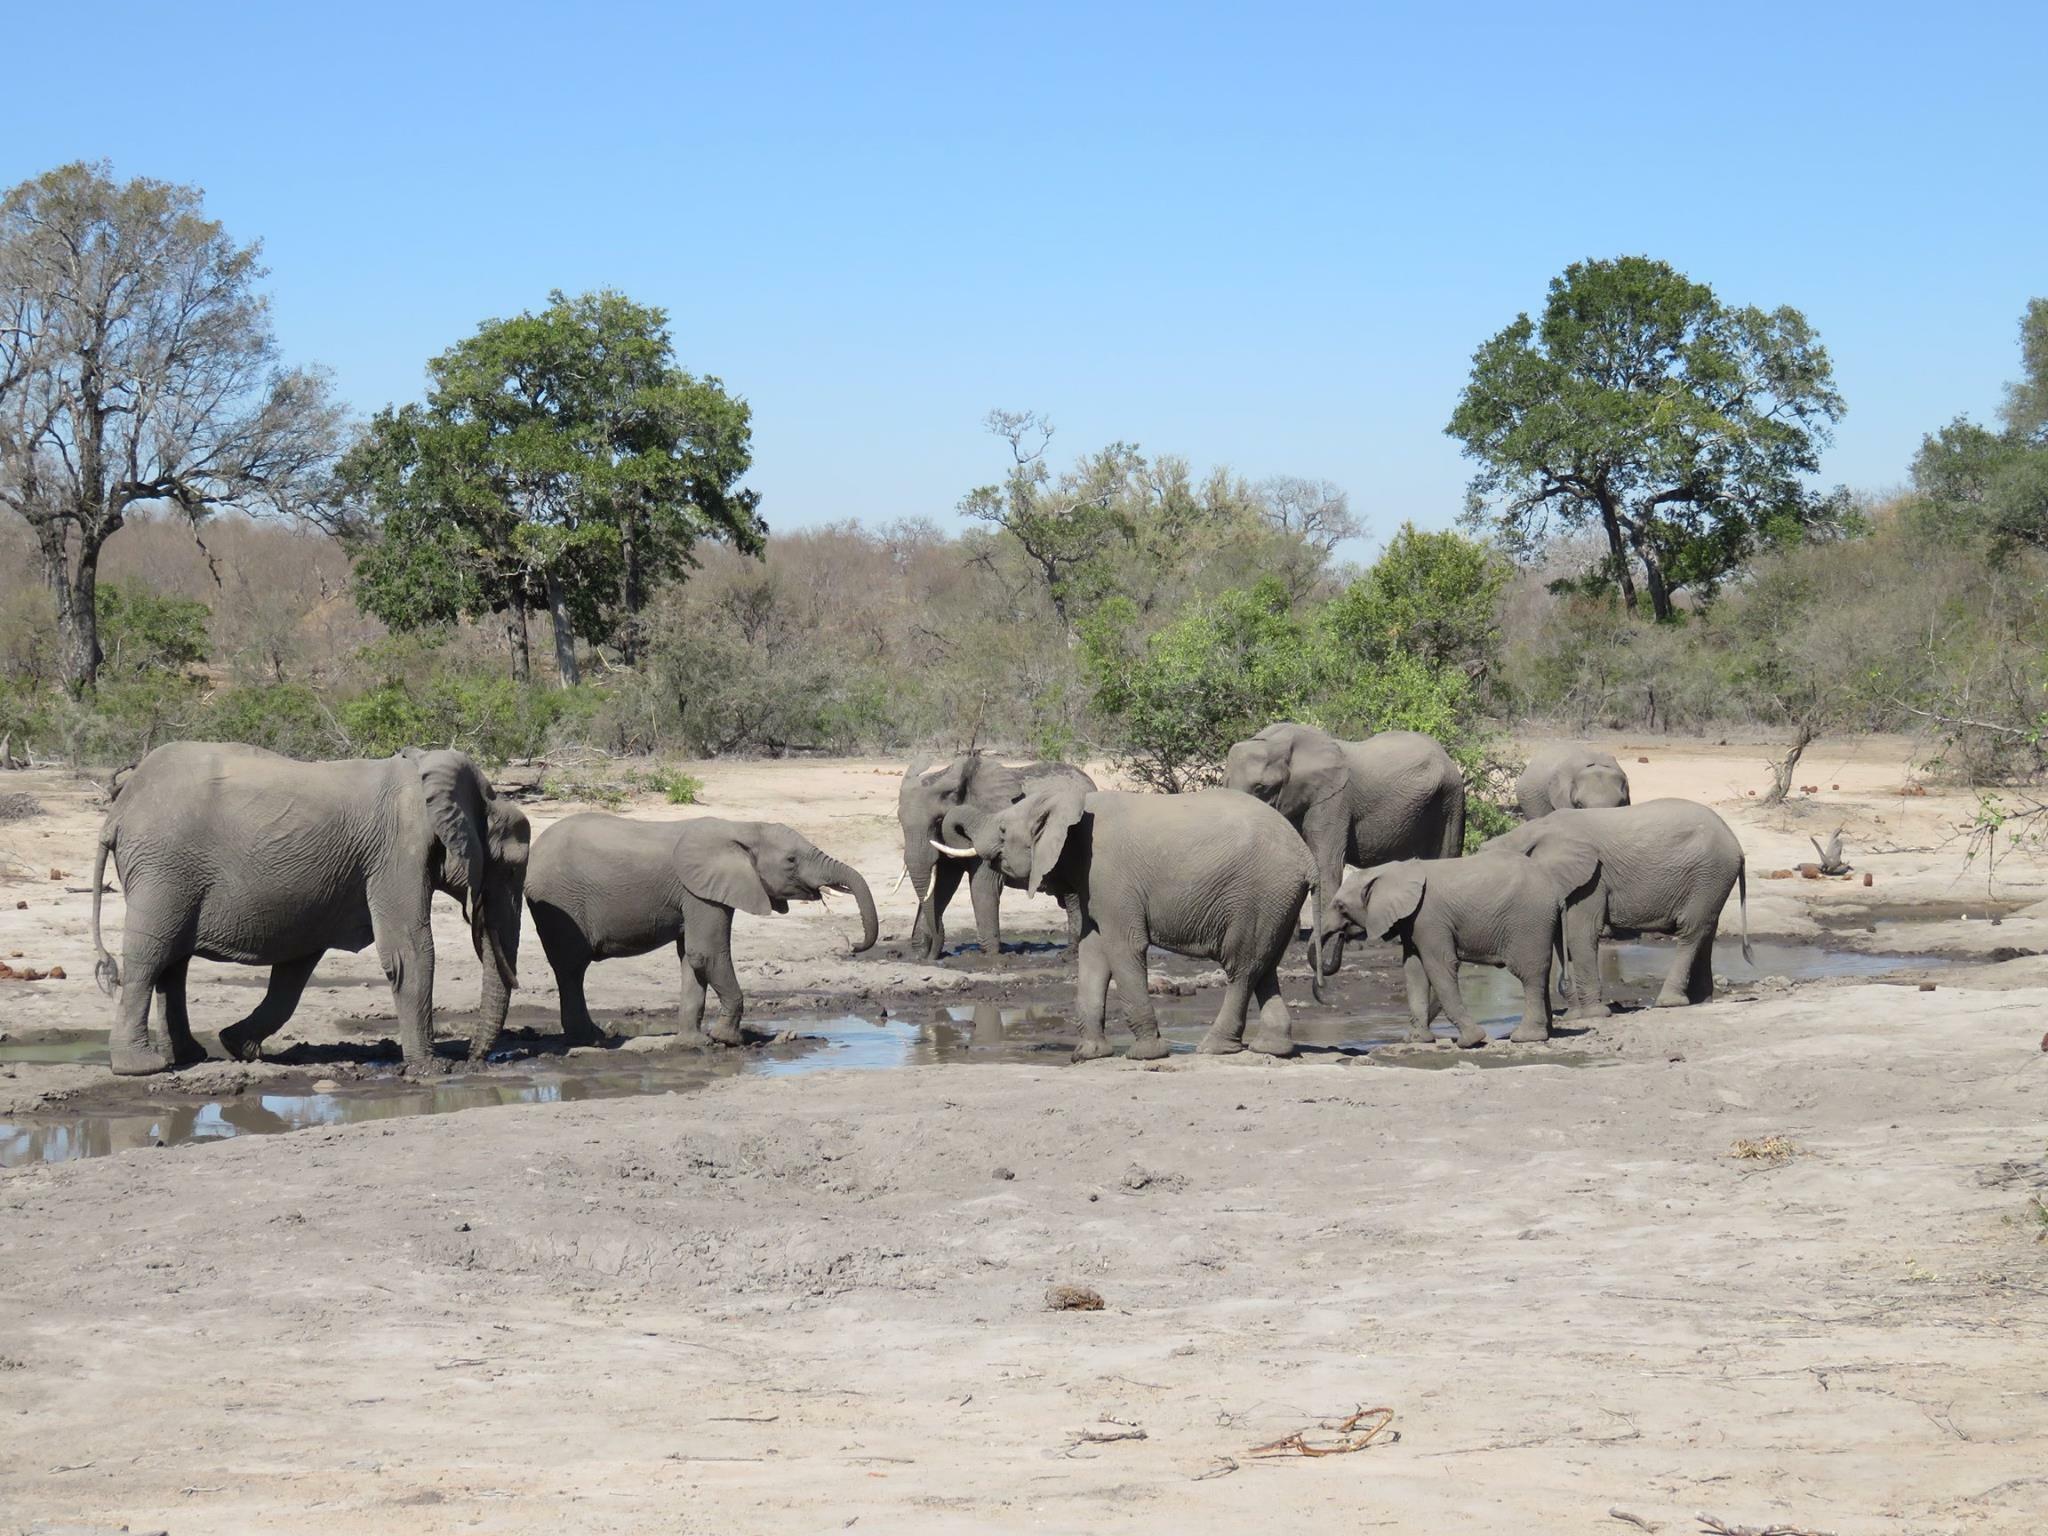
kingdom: Animalia
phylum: Chordata
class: Mammalia
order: Proboscidea
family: Elephantidae
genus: Loxodonta
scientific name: Loxodonta africana
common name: African elephant
